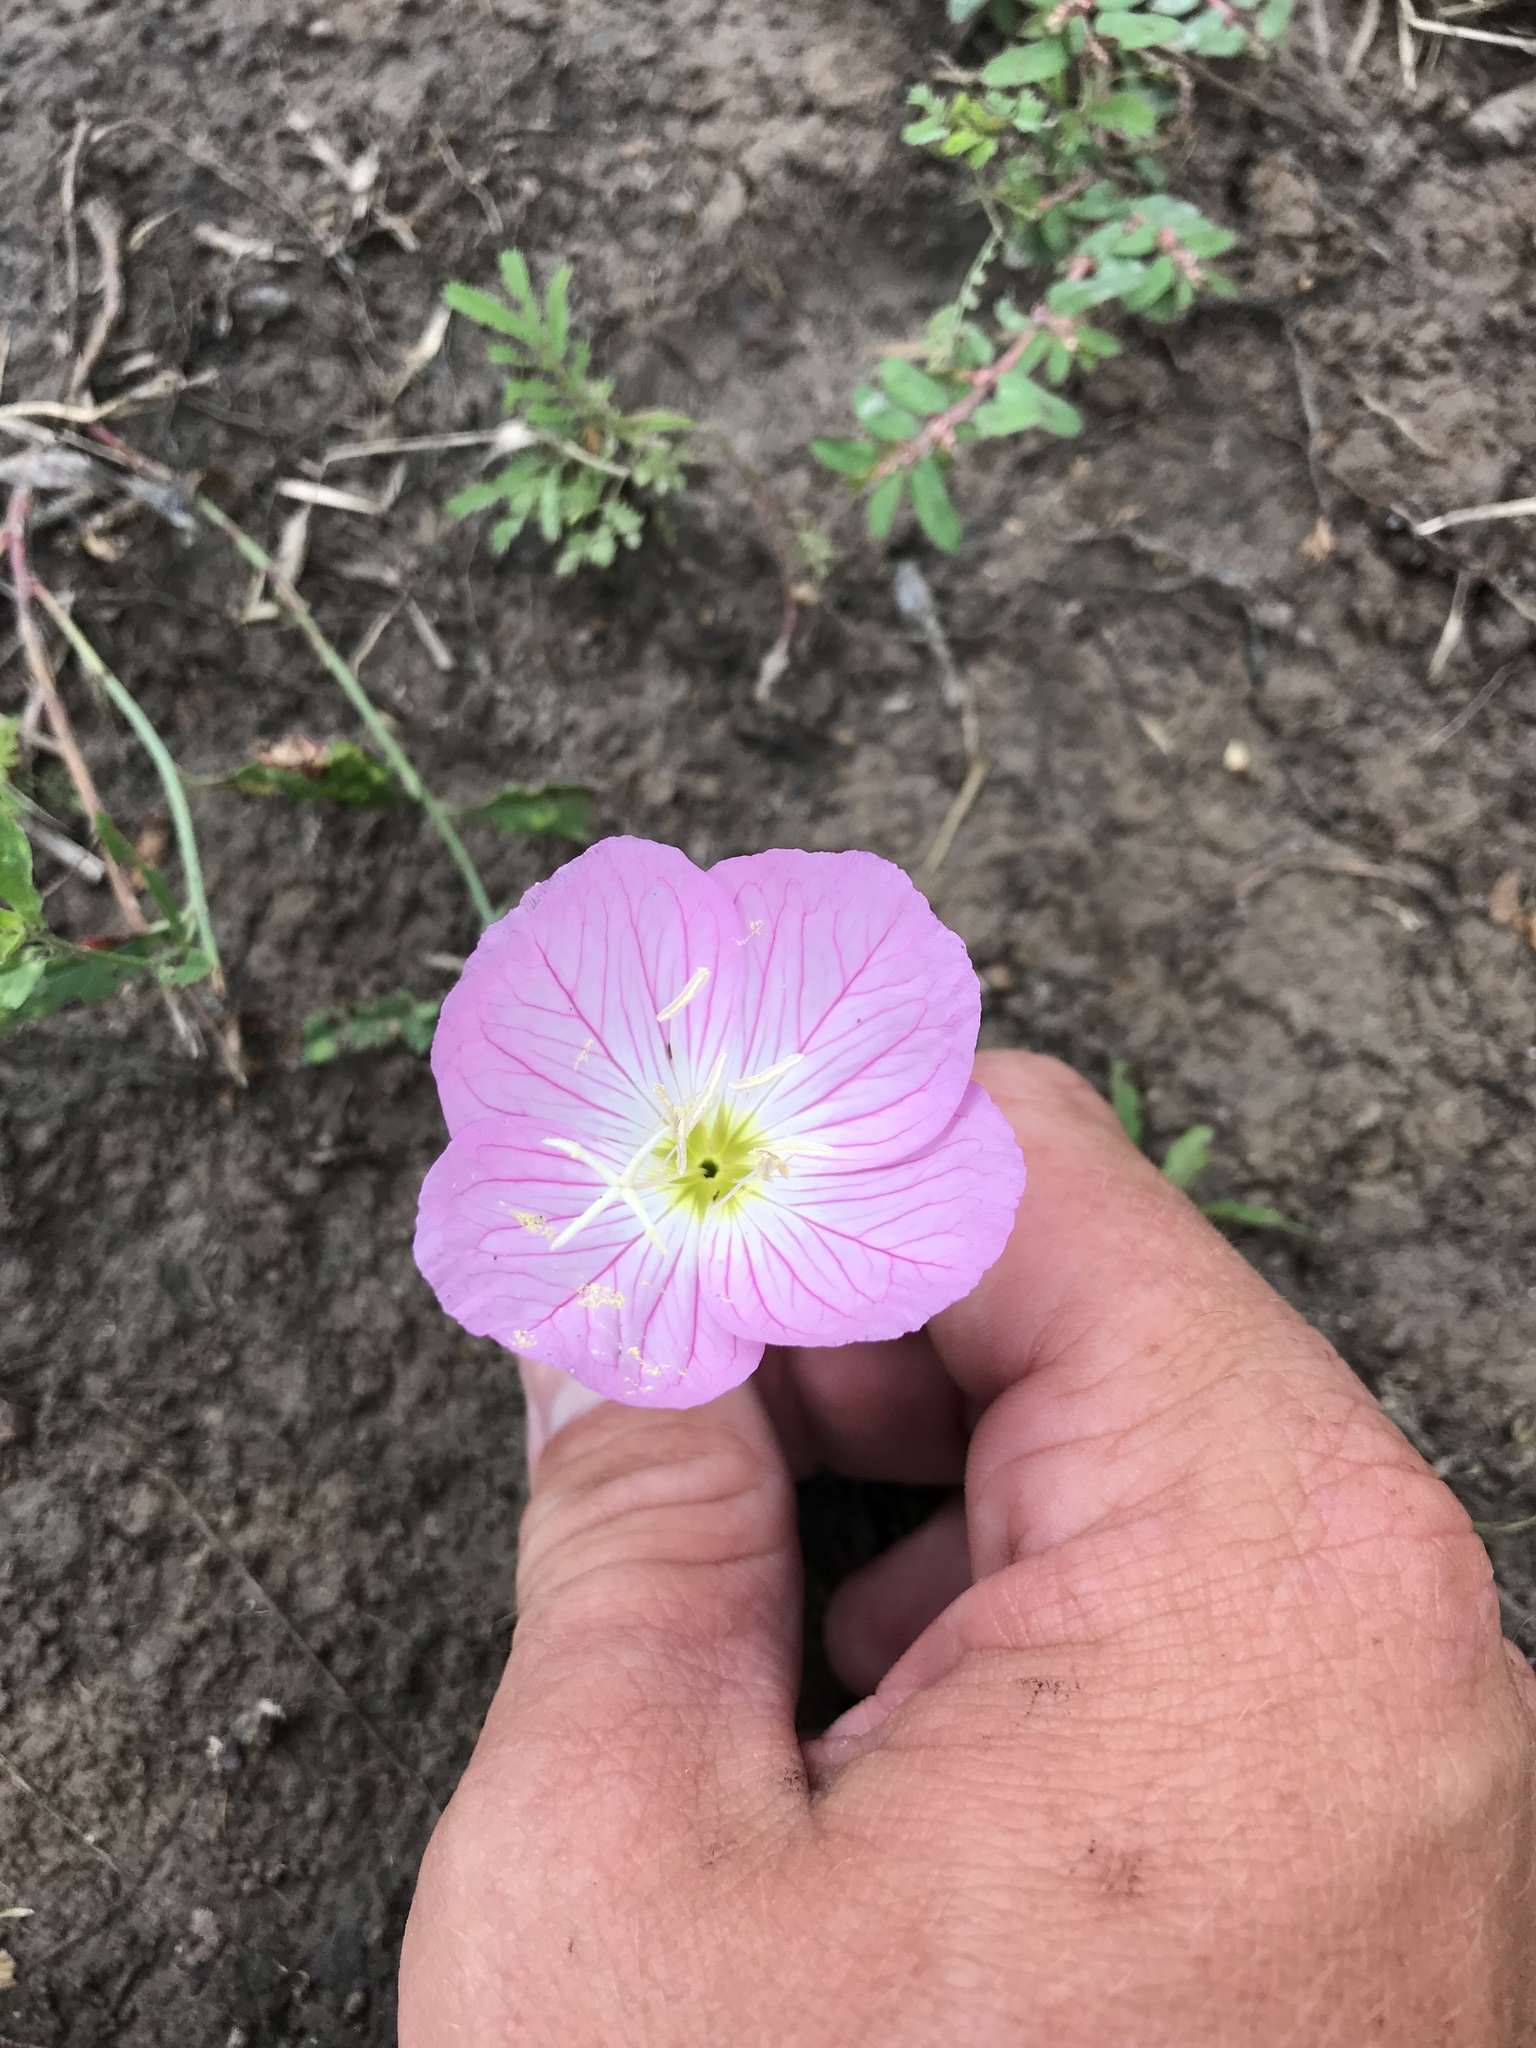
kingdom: Plantae
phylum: Tracheophyta
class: Magnoliopsida
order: Myrtales
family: Onagraceae
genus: Oenothera
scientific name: Oenothera speciosa
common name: White evening-primrose
